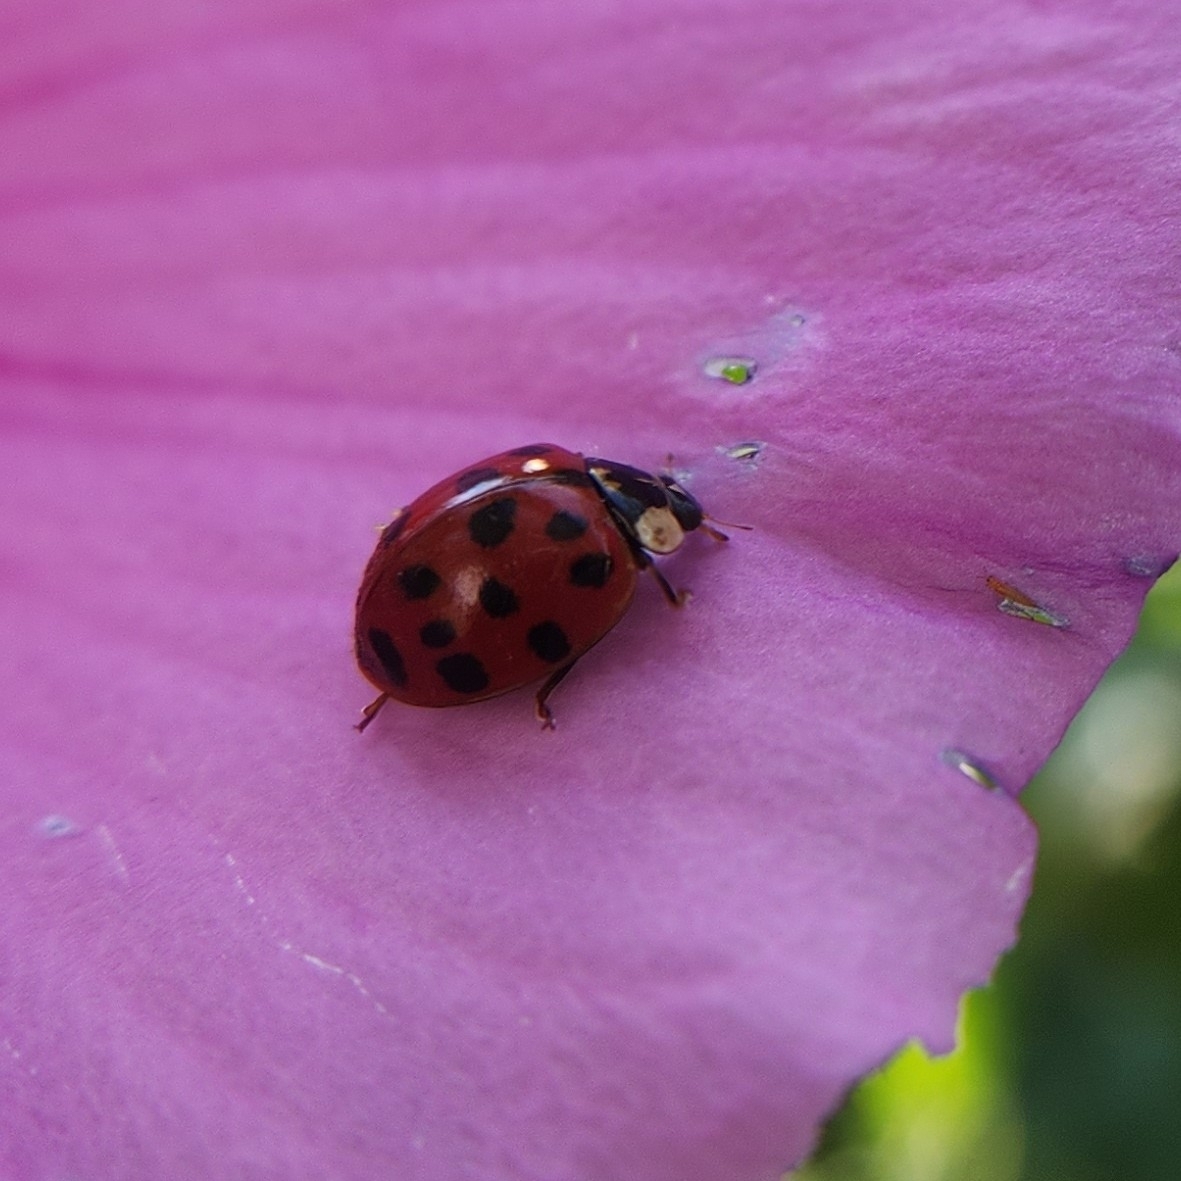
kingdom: Animalia
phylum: Arthropoda
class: Insecta
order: Coleoptera
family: Coccinellidae
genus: Harmonia
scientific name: Harmonia axyridis
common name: Harlequin ladybird
